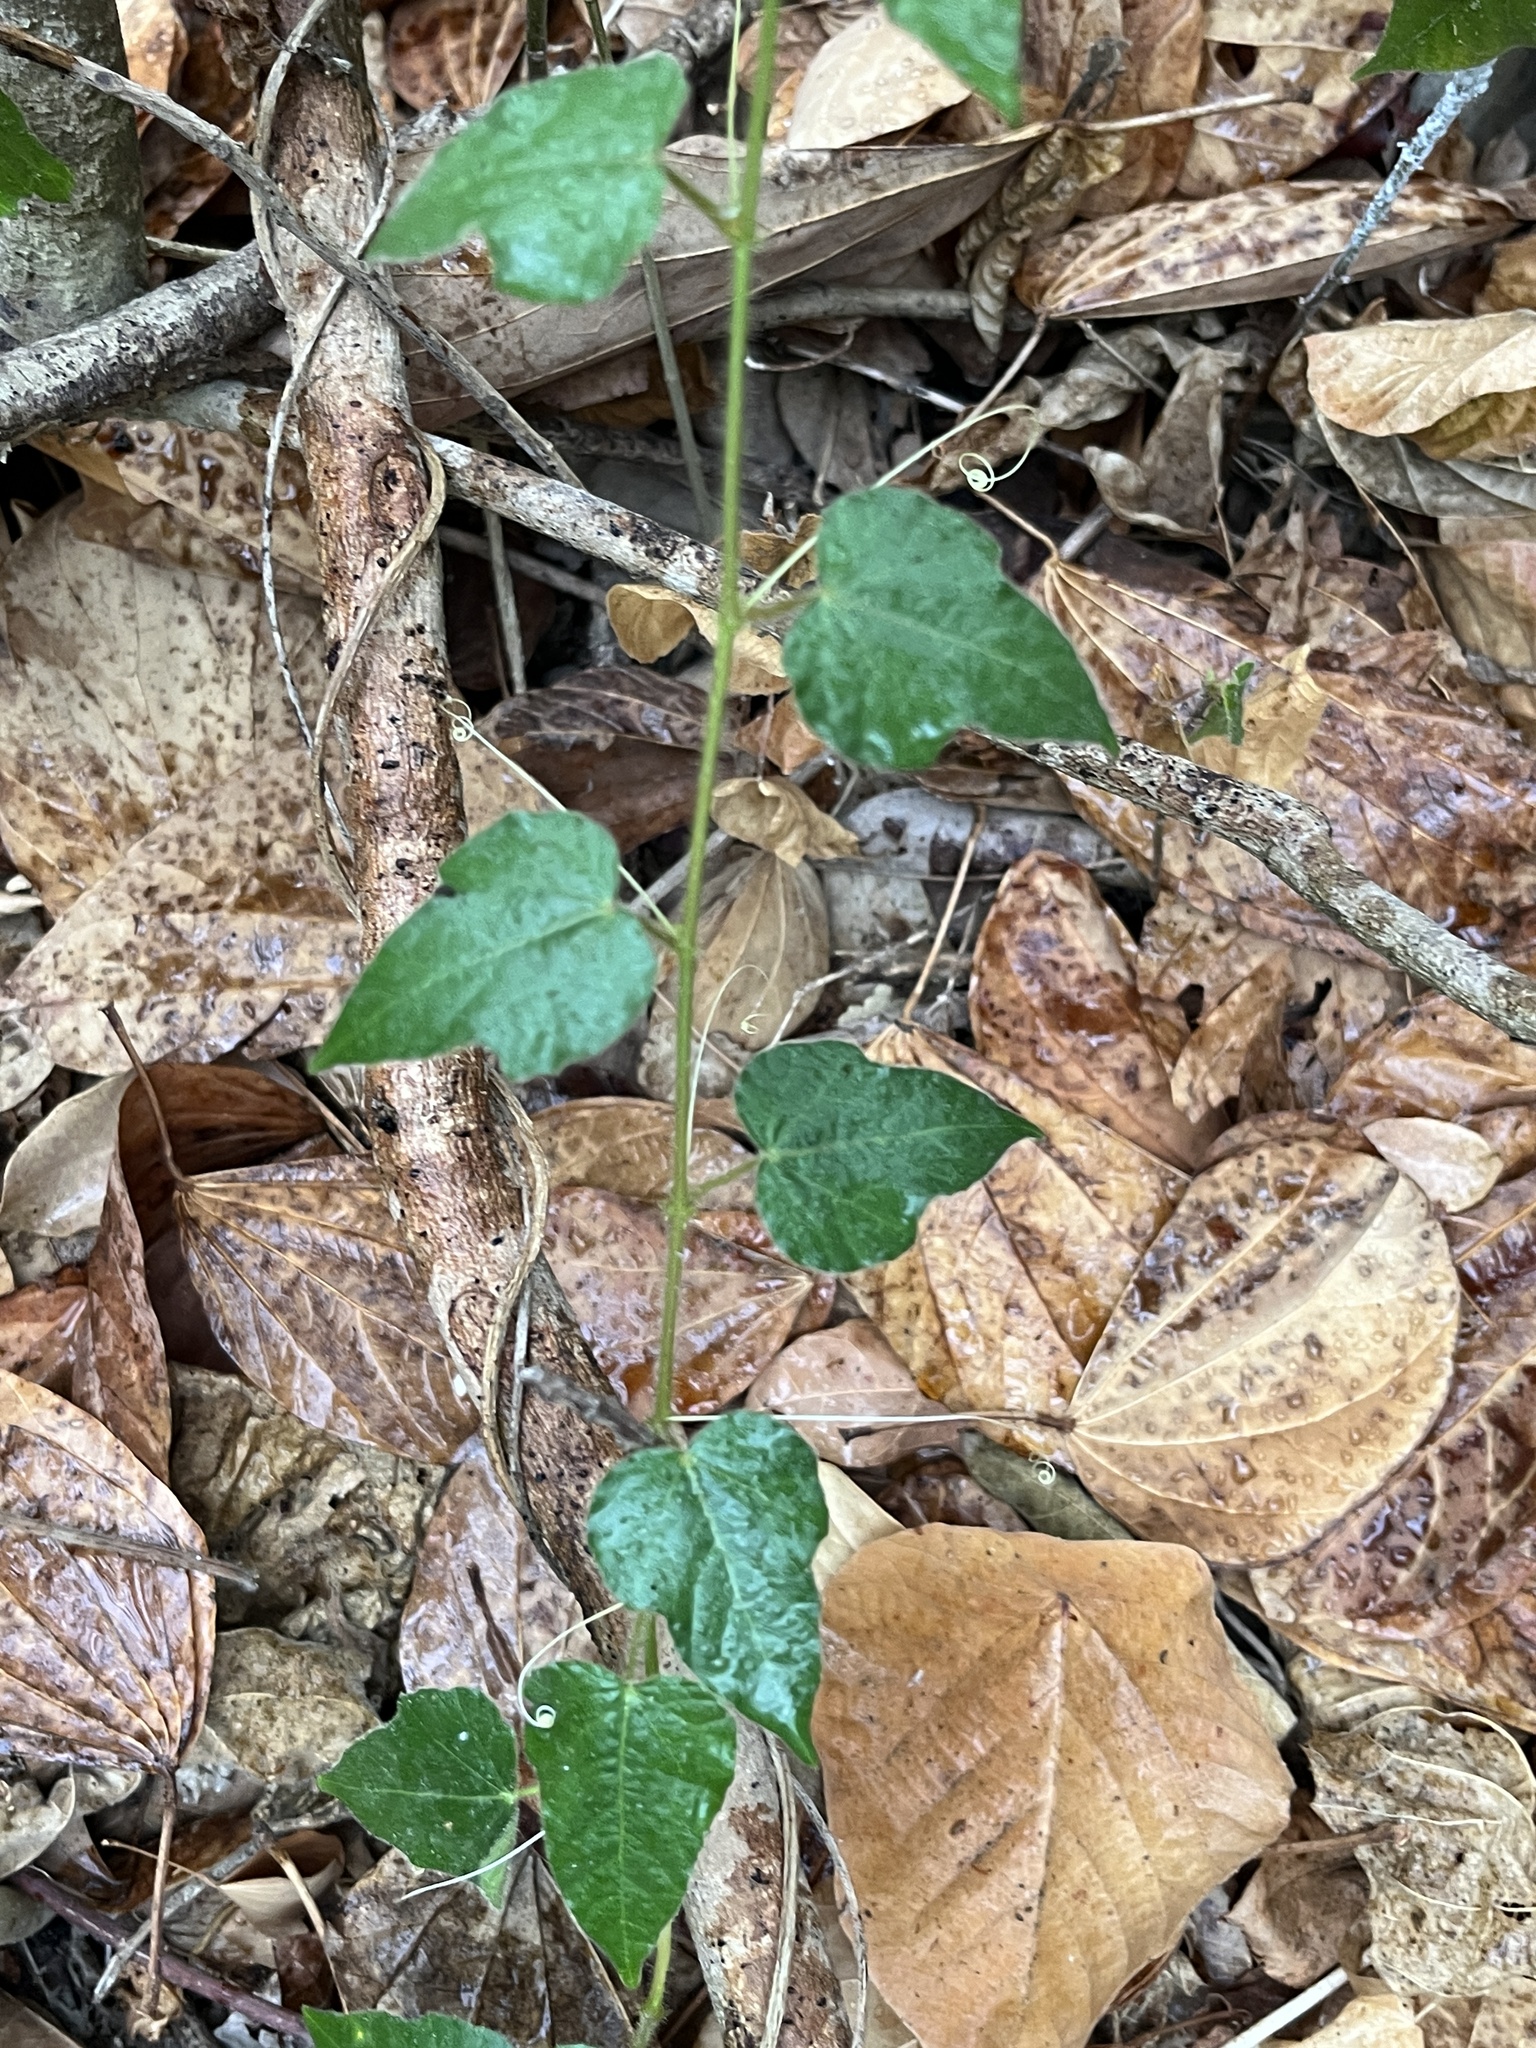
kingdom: Plantae
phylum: Tracheophyta
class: Magnoliopsida
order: Malpighiales
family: Passifloraceae
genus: Passiflora
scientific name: Passiflora vesicaria
